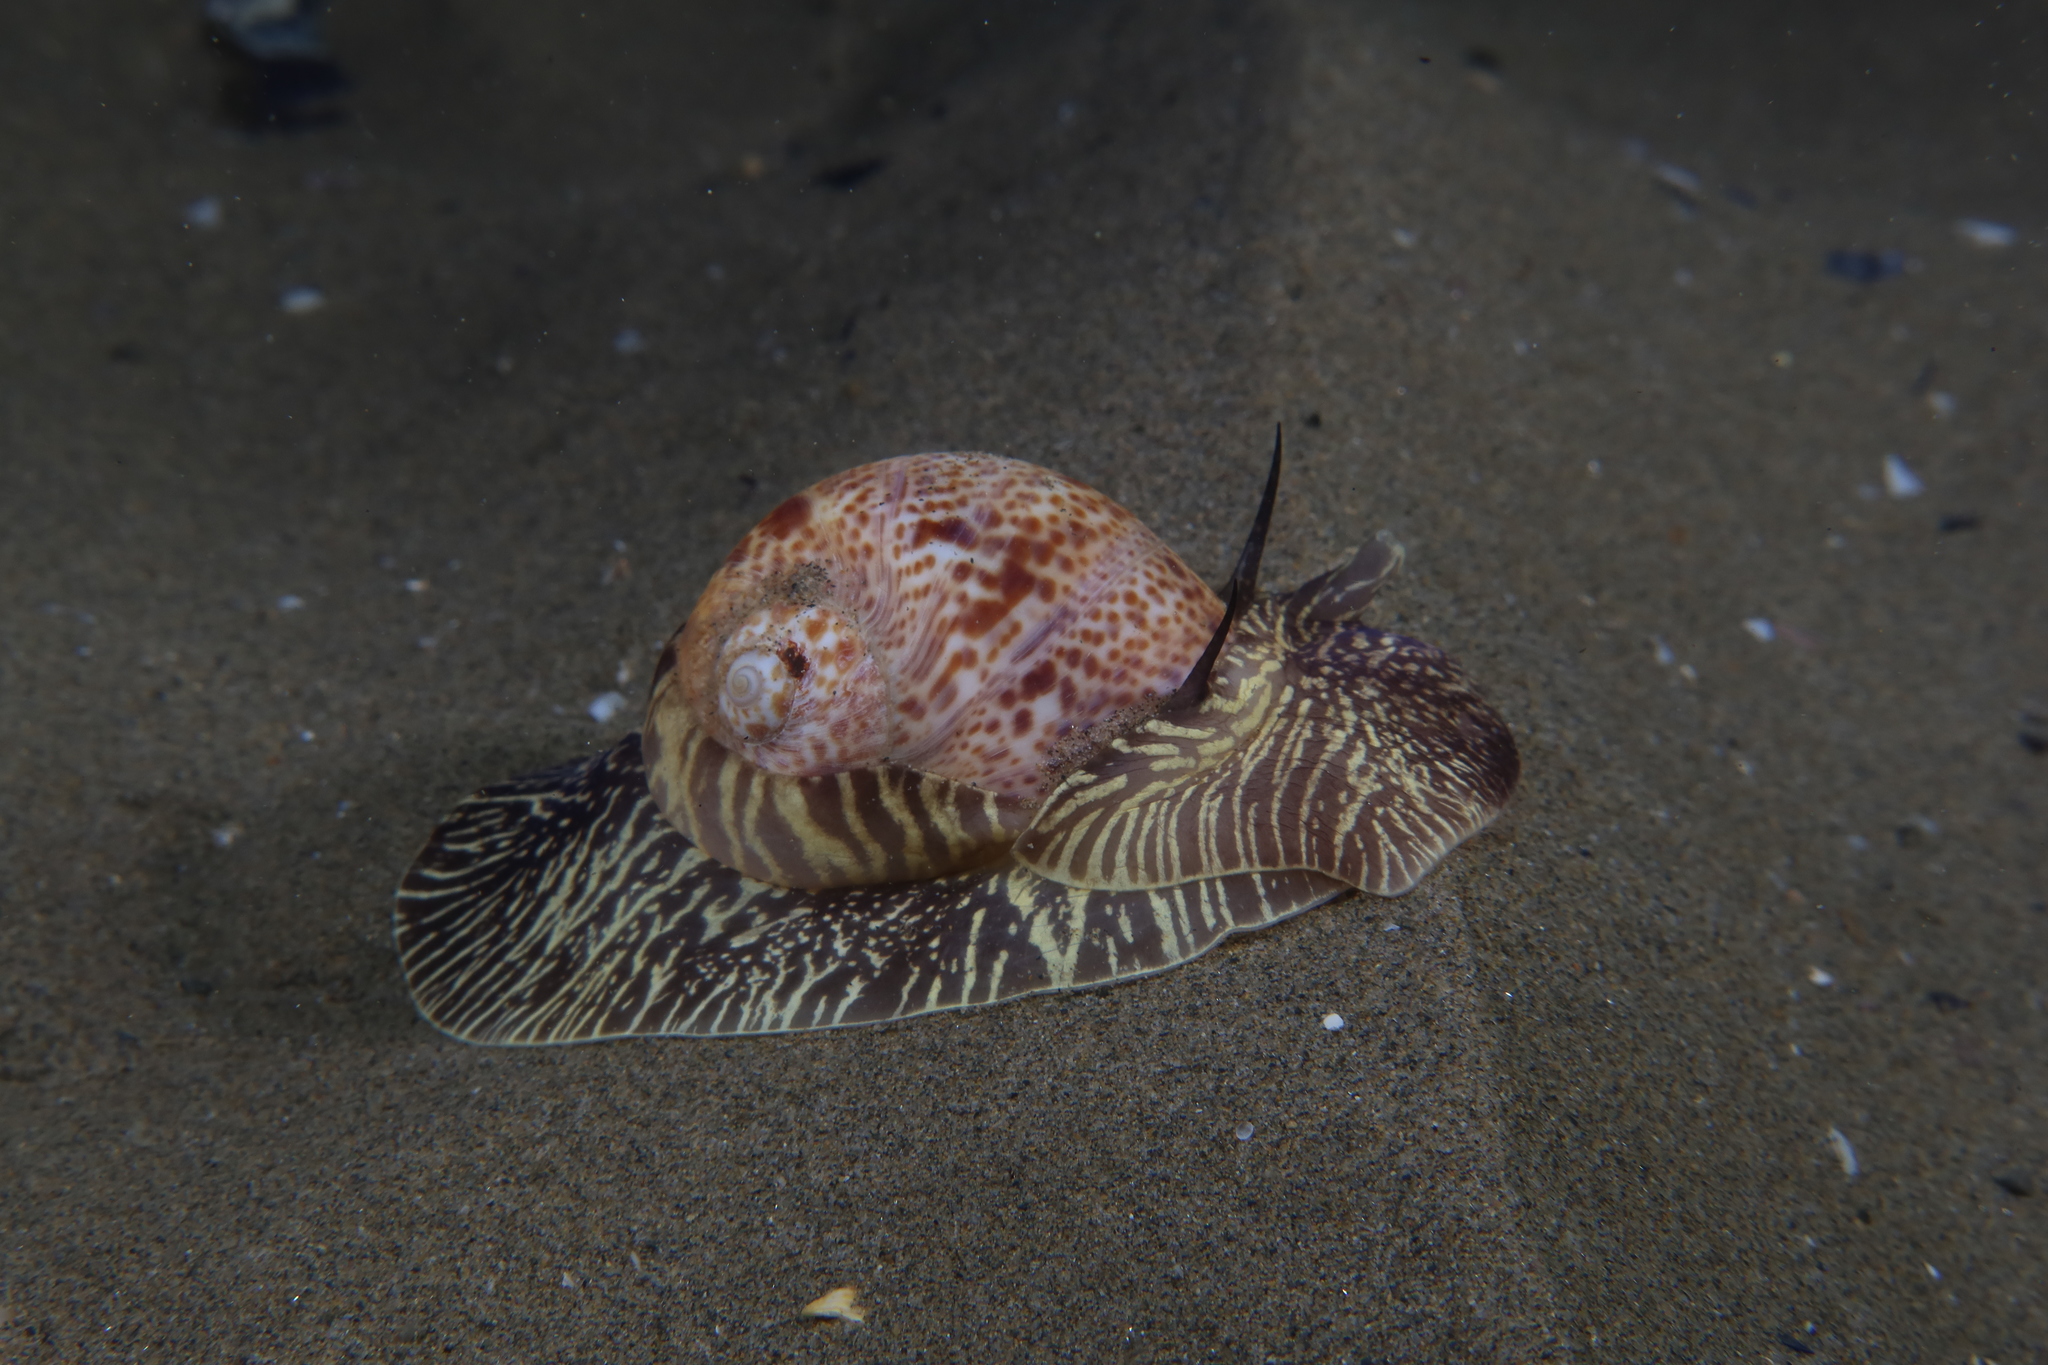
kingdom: Animalia
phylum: Mollusca
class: Gastropoda
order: Littorinimorpha
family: Naticidae
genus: Naticarius
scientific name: Naticarius hebraeus
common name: Hebrew moon shell
